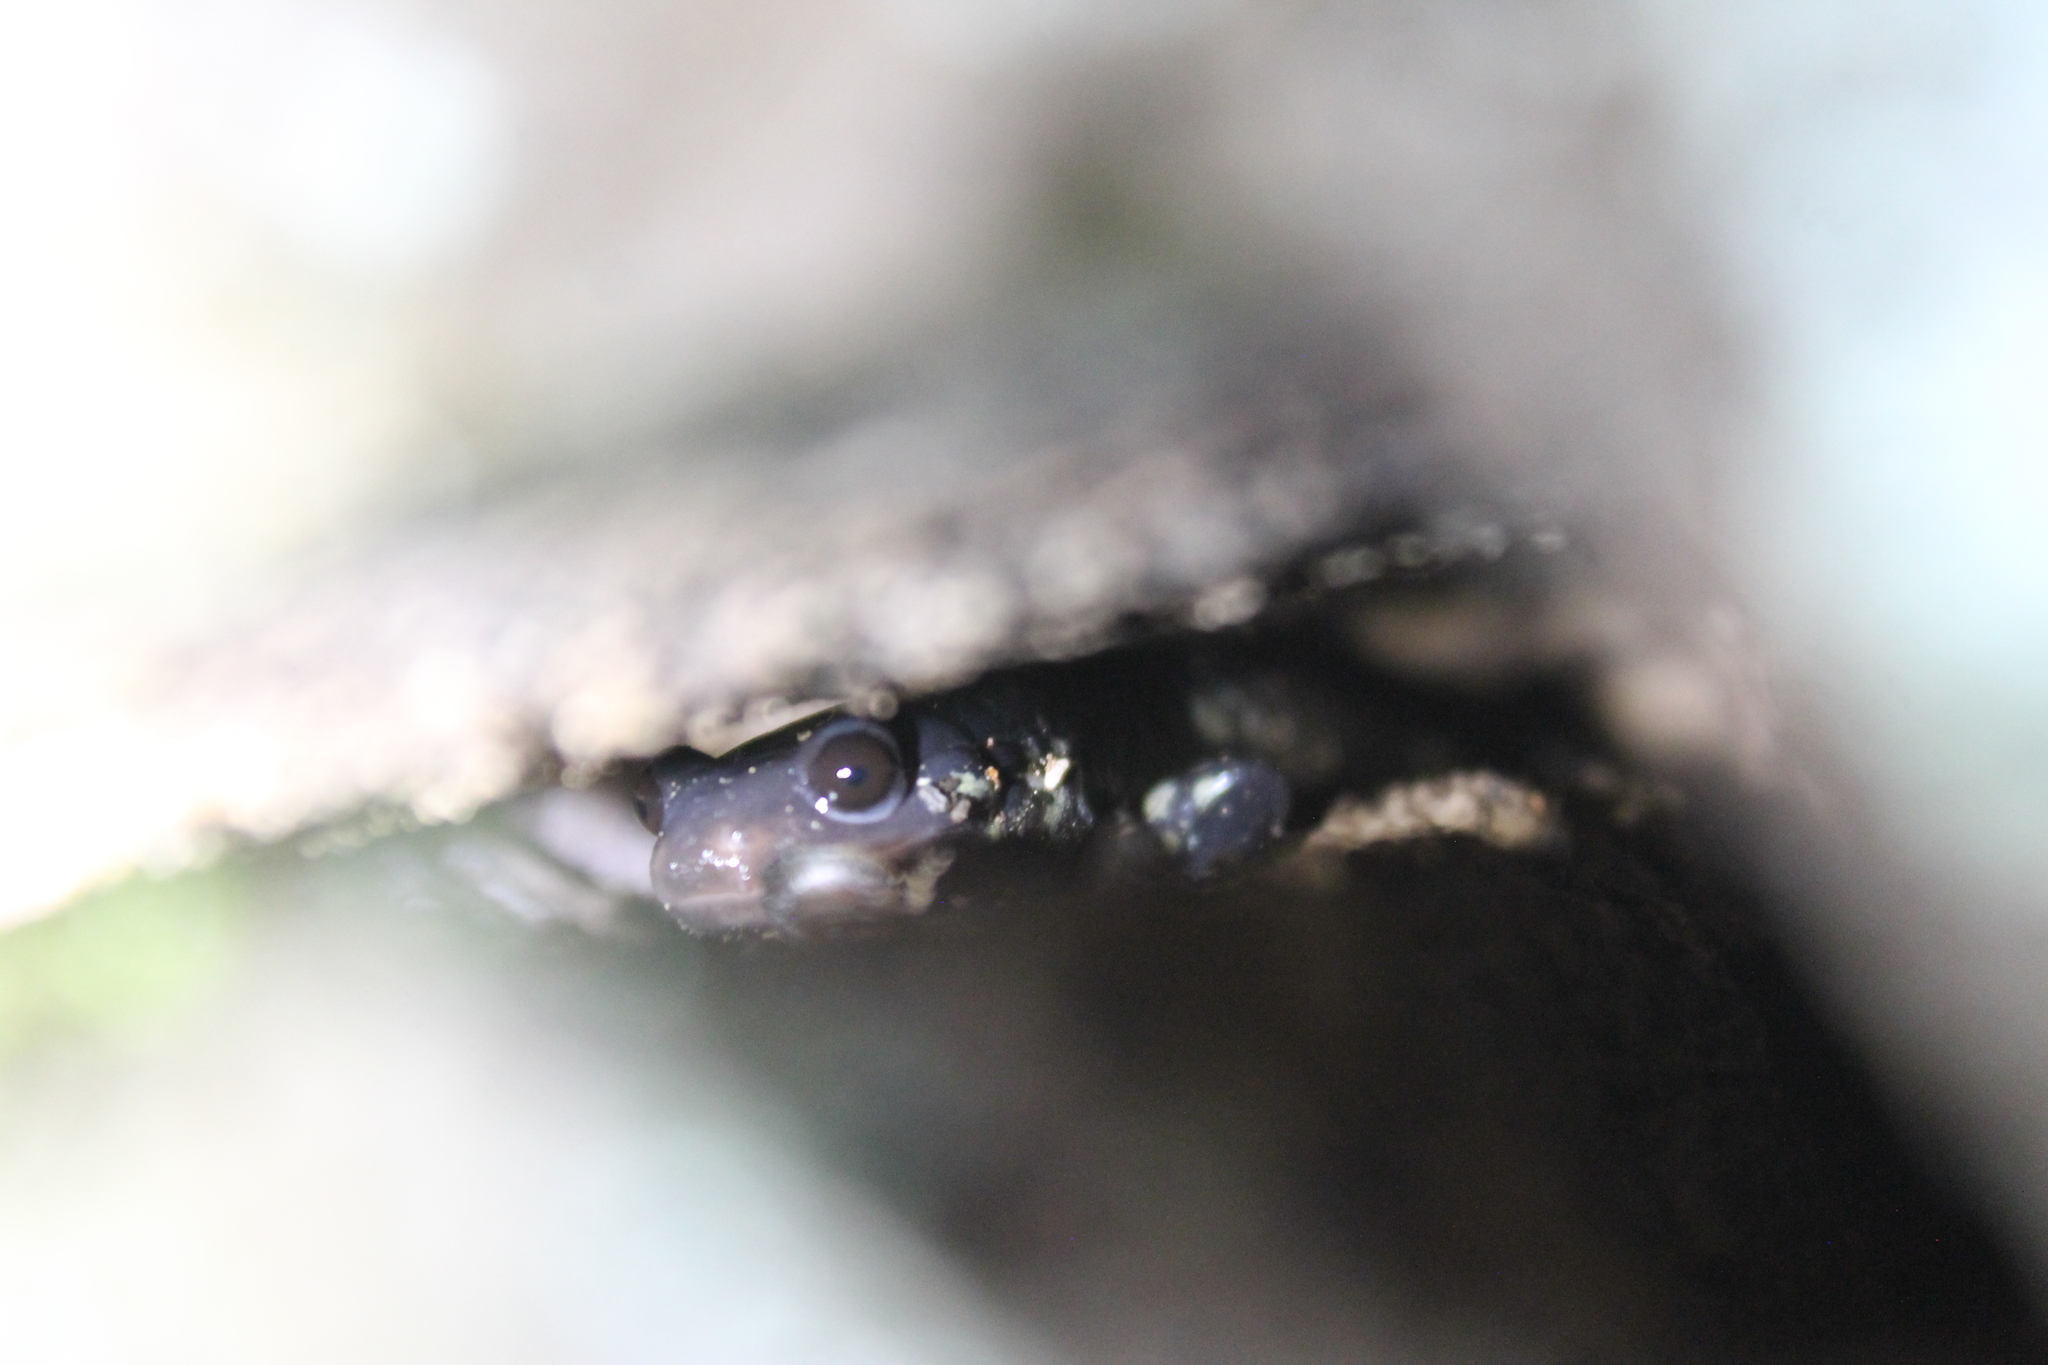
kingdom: Animalia
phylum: Chordata
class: Amphibia
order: Caudata
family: Plethodontidae
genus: Plethodon
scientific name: Plethodon glutinosus
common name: Northern slimy salamander
